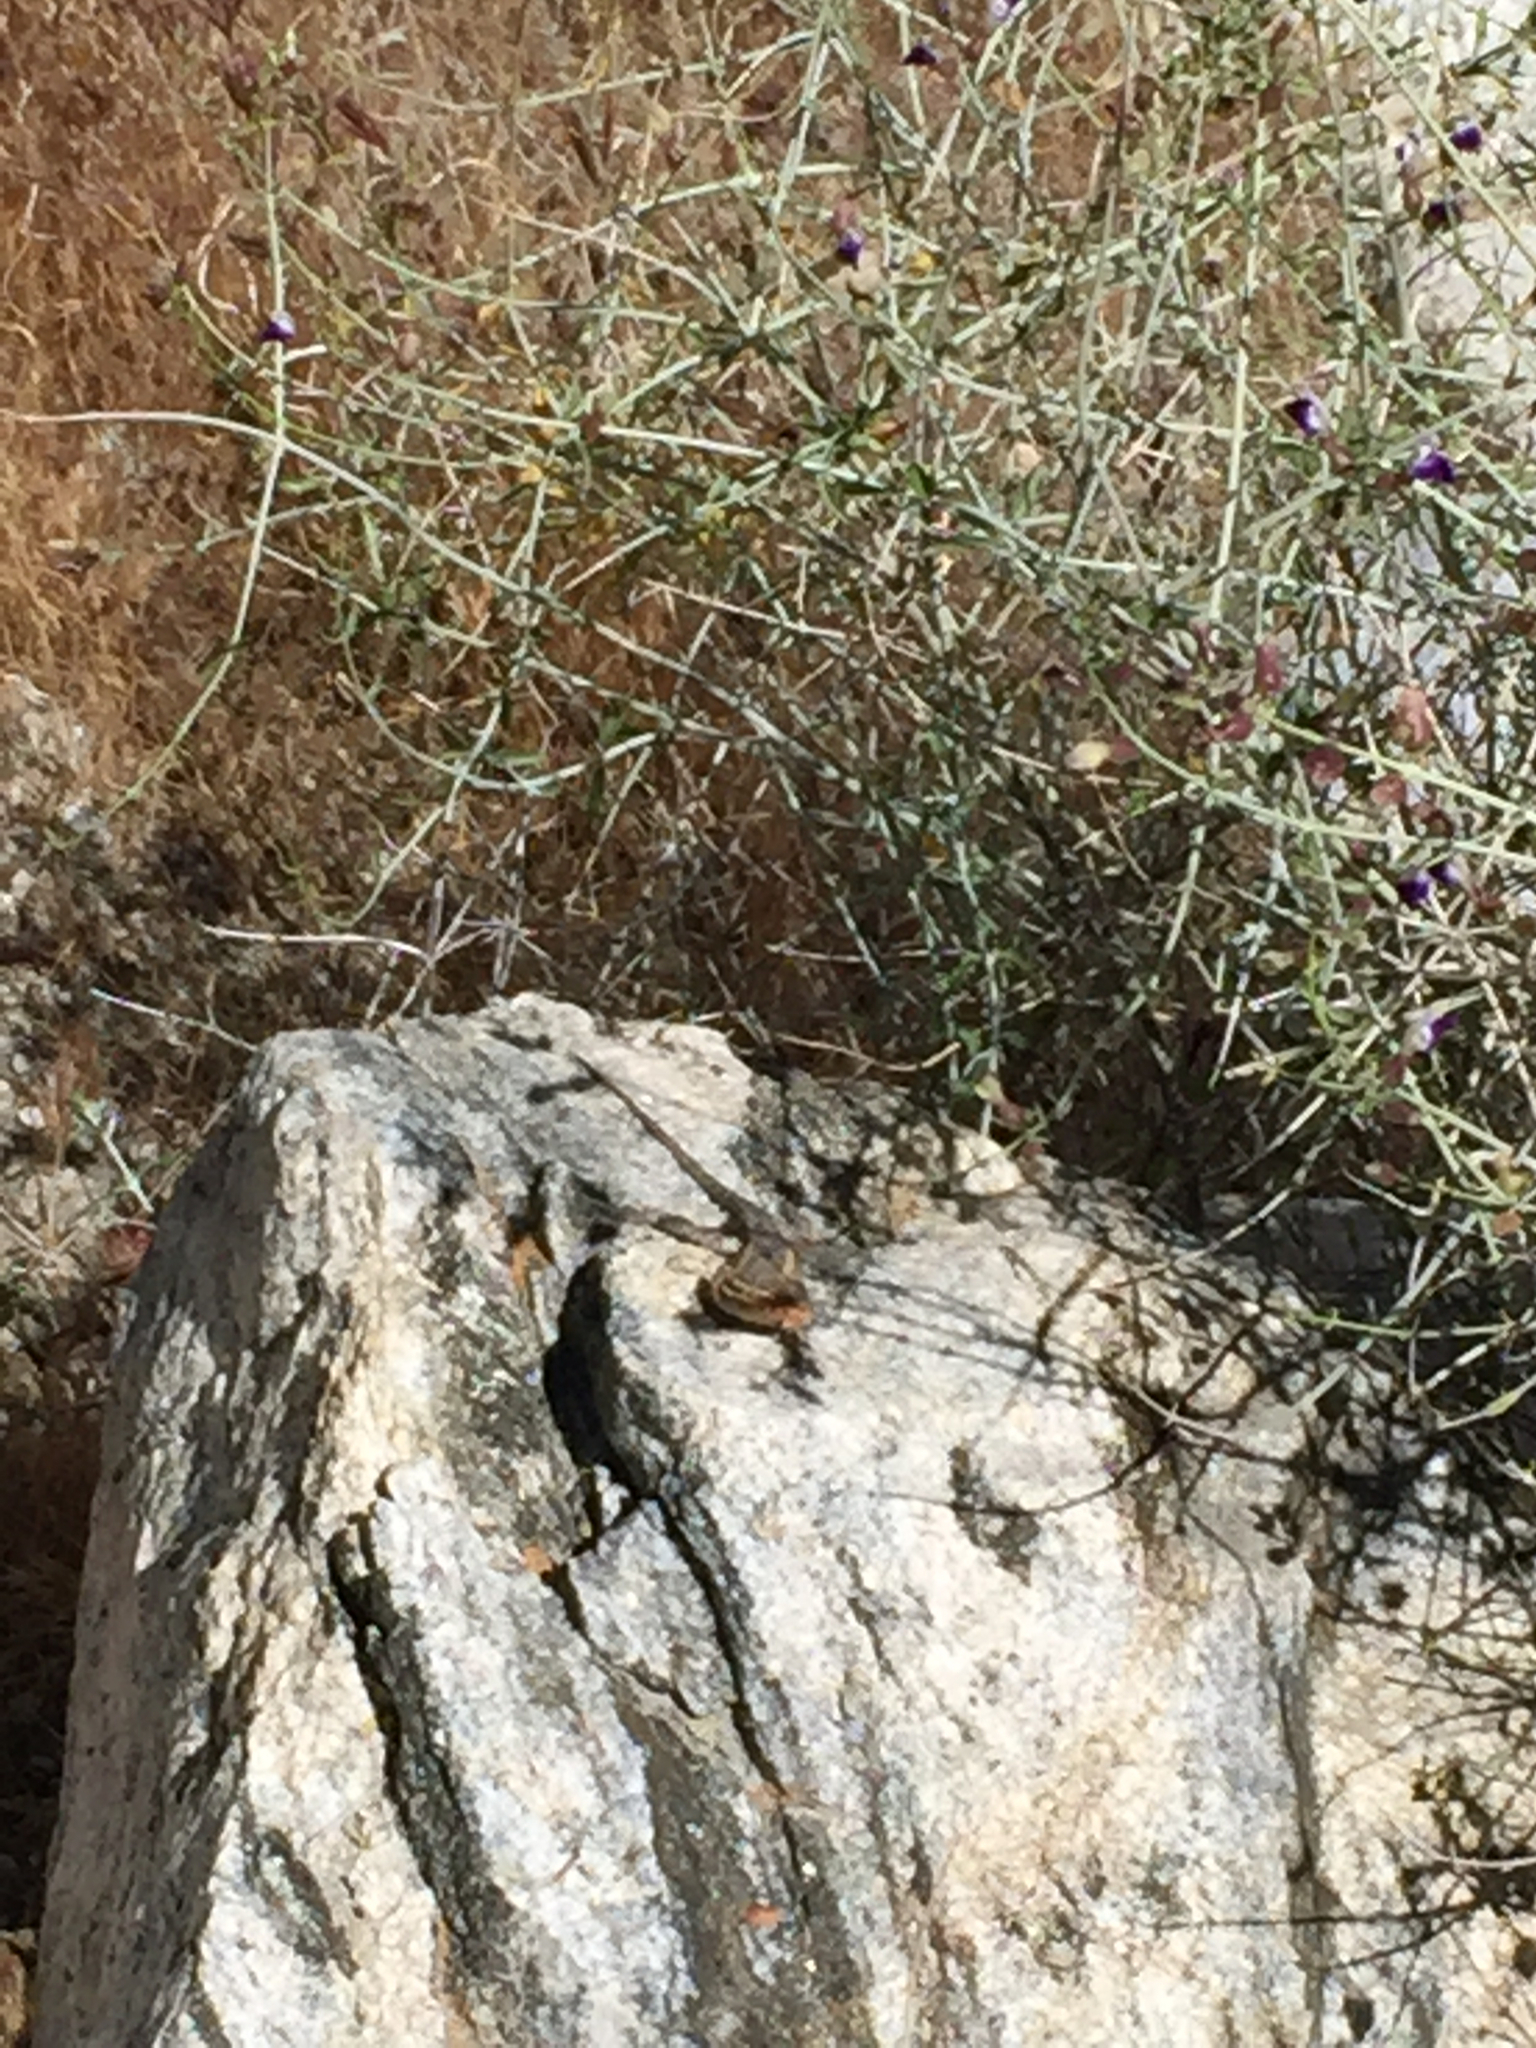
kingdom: Animalia
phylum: Chordata
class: Squamata
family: Phrynosomatidae
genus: Uta
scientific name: Uta stansburiana
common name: Side-blotched lizard
